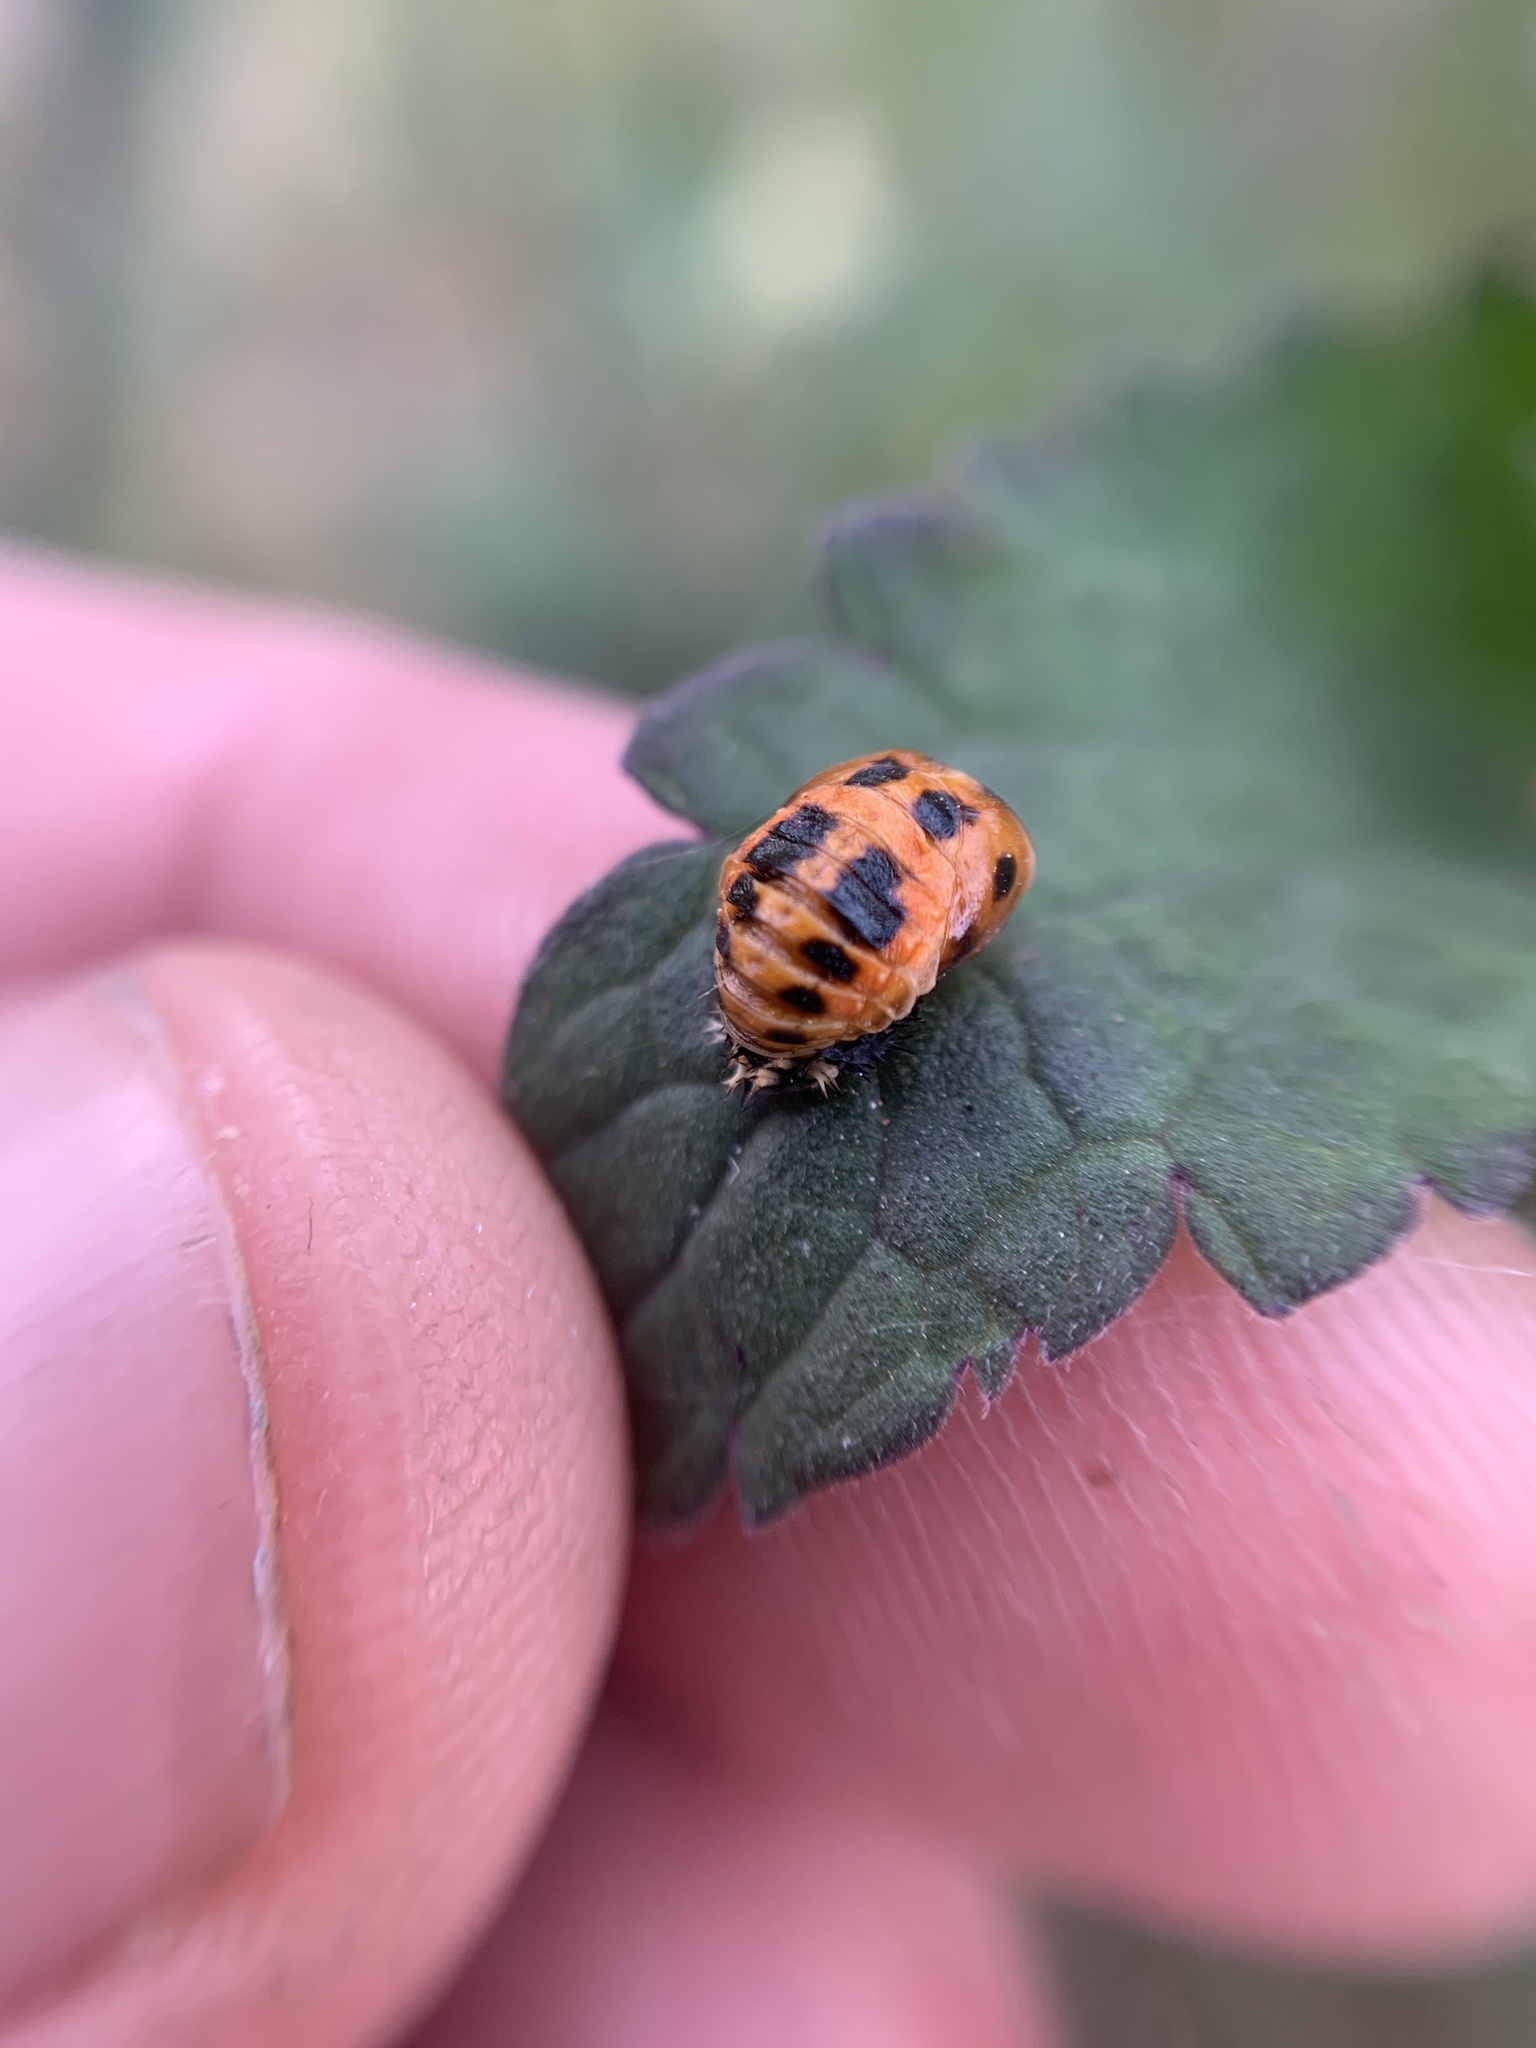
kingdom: Animalia
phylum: Arthropoda
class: Insecta
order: Coleoptera
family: Coccinellidae
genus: Harmonia
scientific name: Harmonia axyridis
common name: Harlequin ladybird
